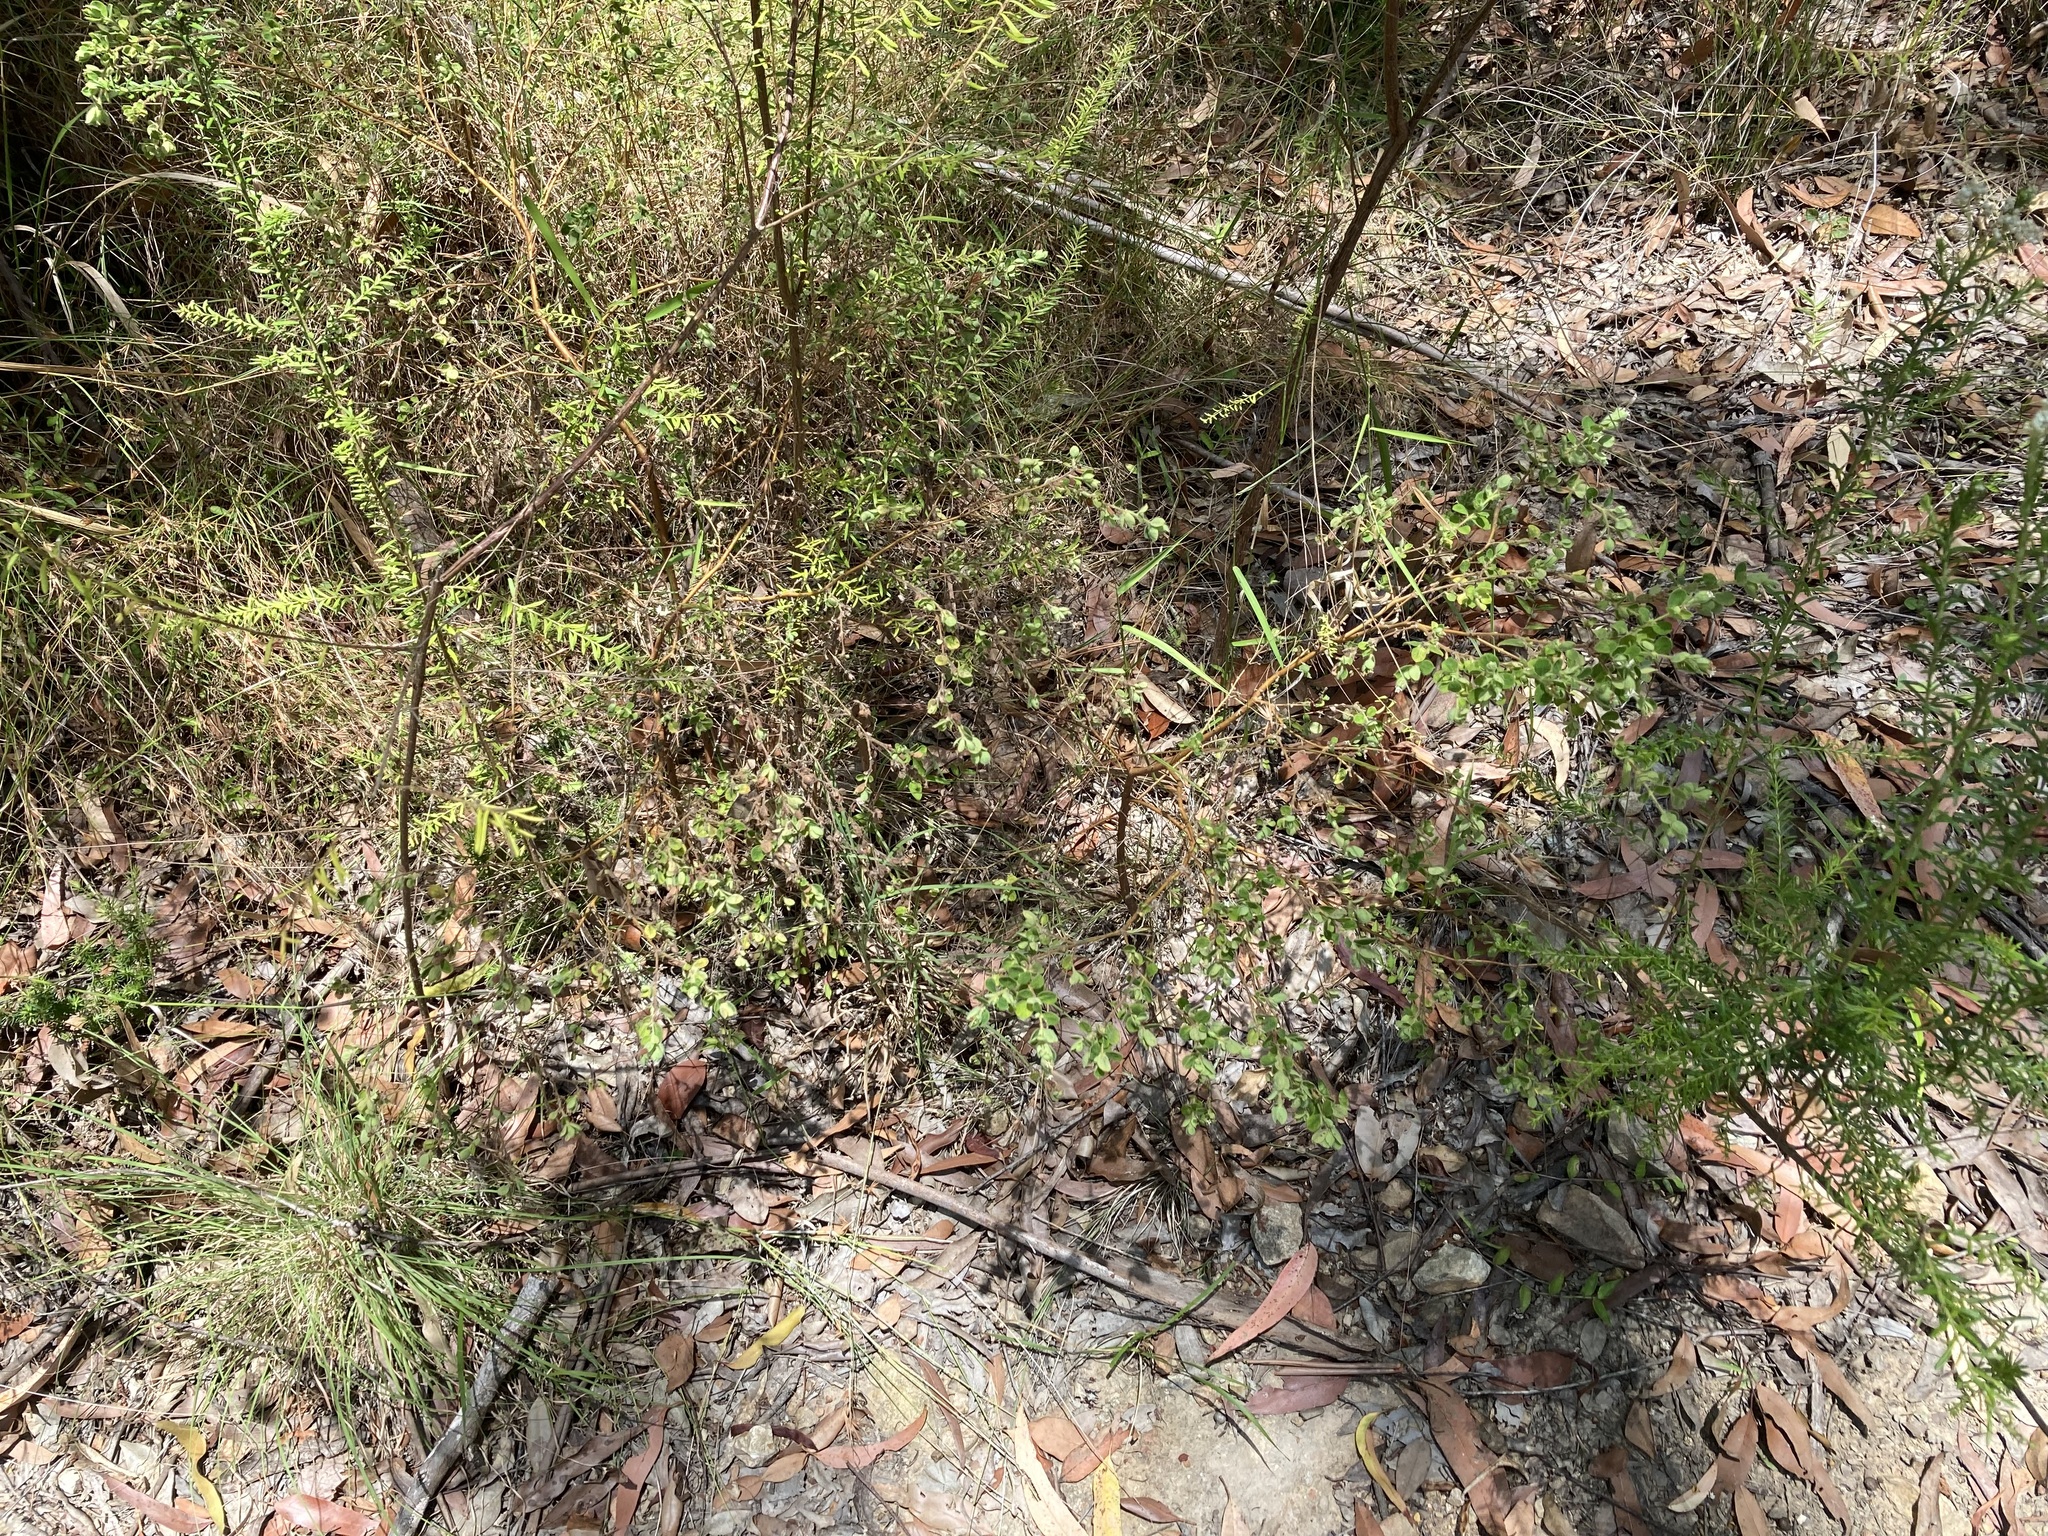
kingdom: Plantae
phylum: Tracheophyta
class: Magnoliopsida
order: Malvales
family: Thymelaeaceae
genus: Pimelea
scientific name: Pimelea altior
